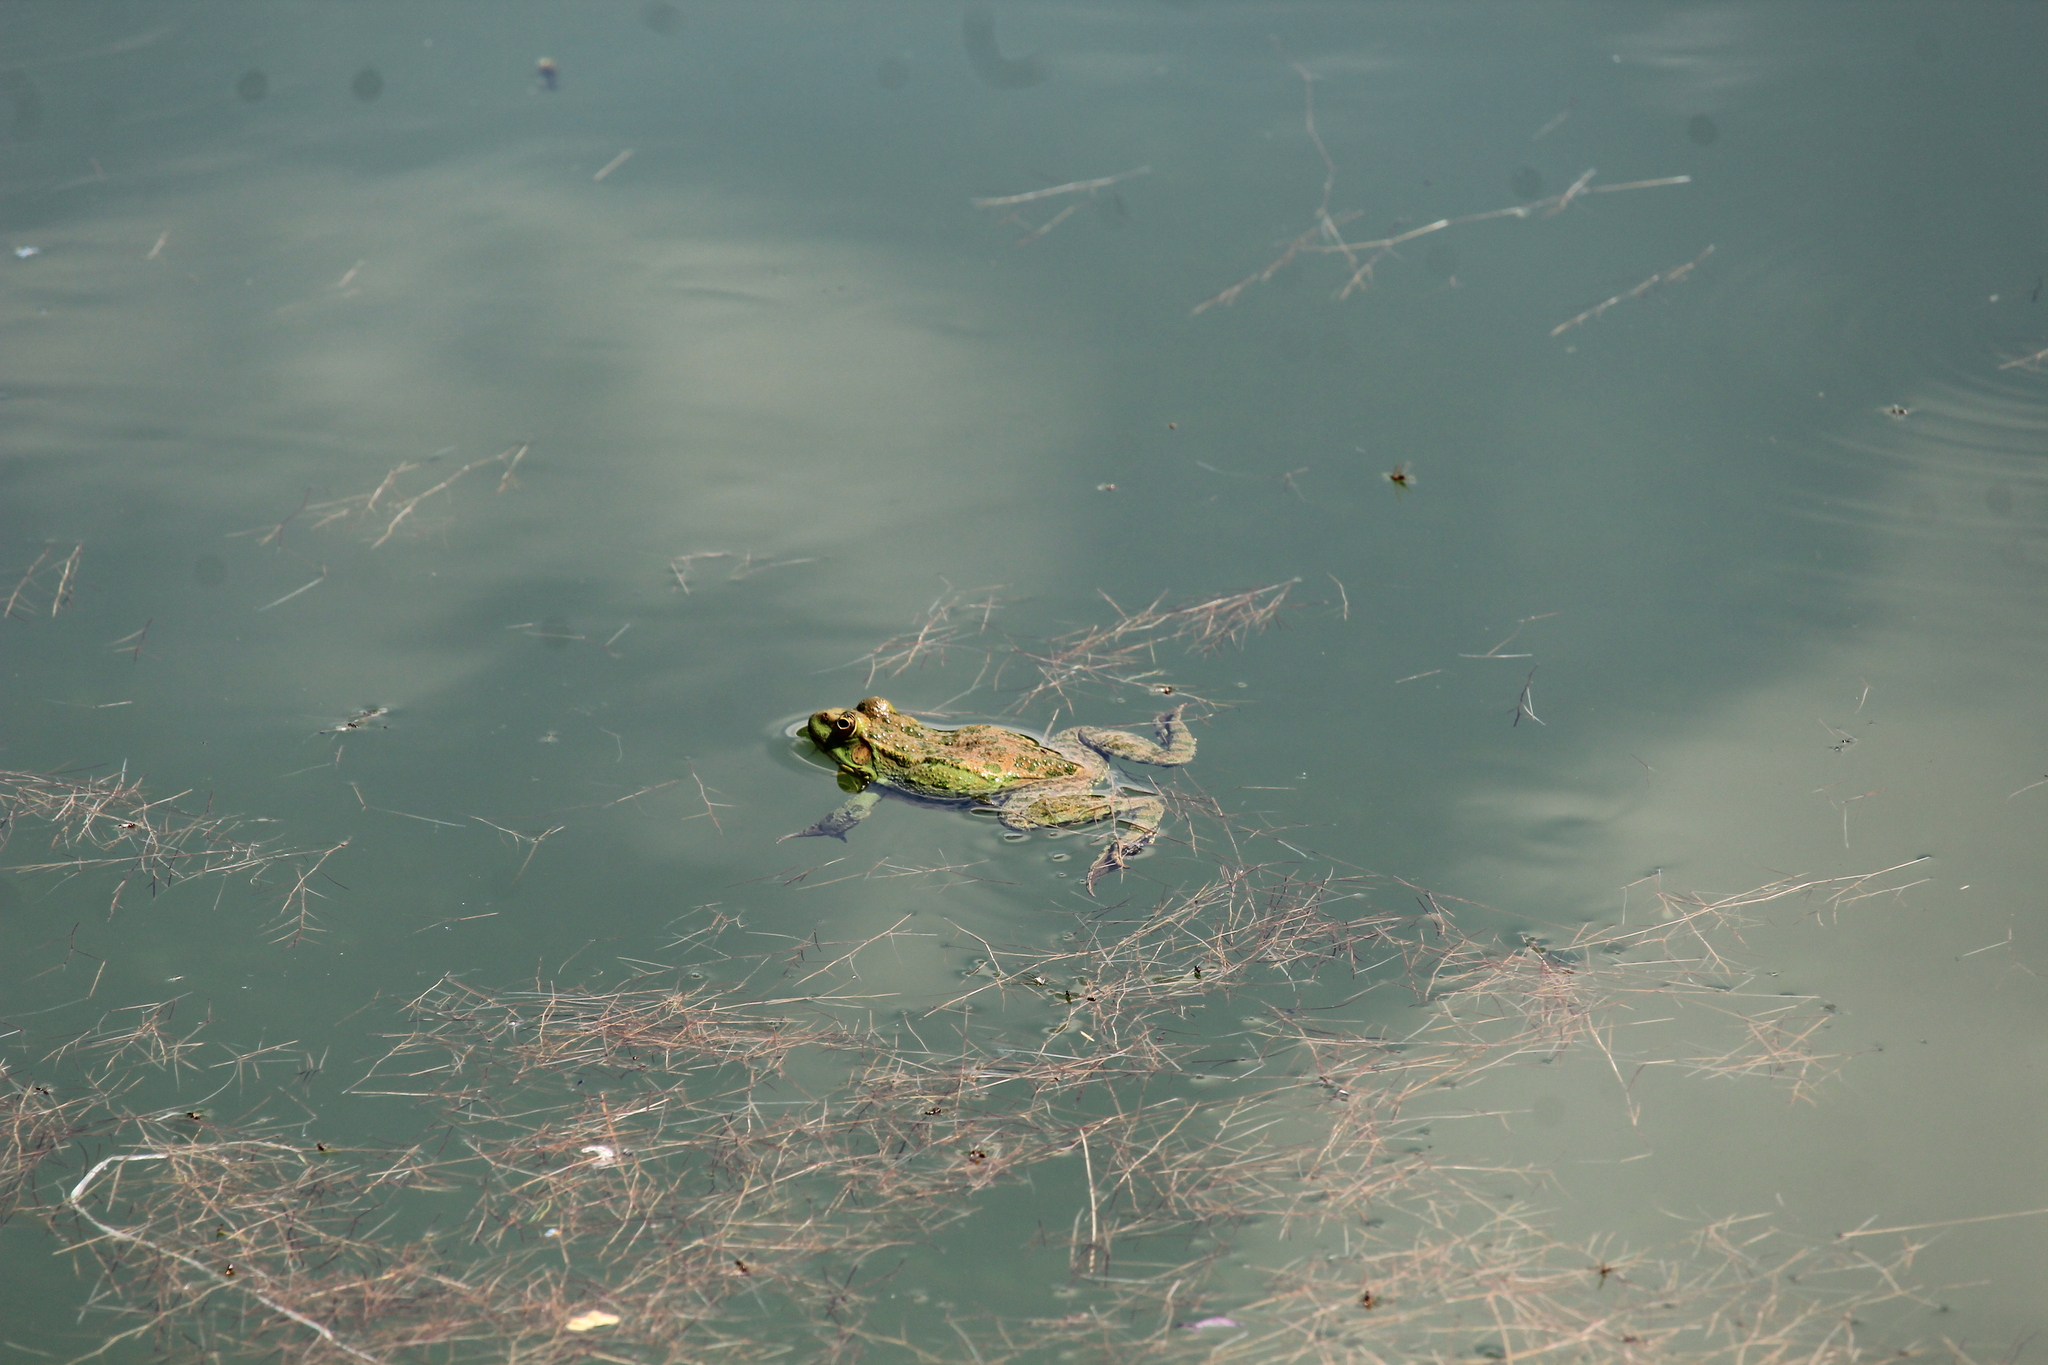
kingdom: Animalia
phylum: Chordata
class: Amphibia
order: Anura
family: Ranidae
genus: Pelophylax
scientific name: Pelophylax ridibundus
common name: Marsh frog
